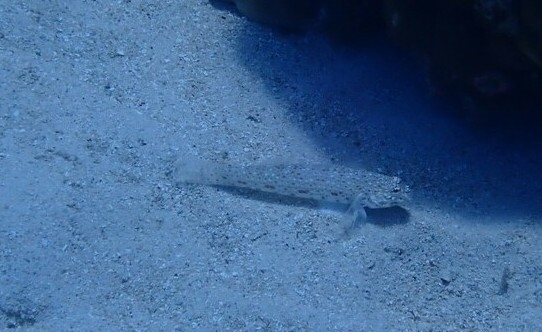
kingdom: Animalia
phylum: Chordata
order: Perciformes
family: Gobiidae
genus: Istigobius
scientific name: Istigobius decoratus
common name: Decorated goby
